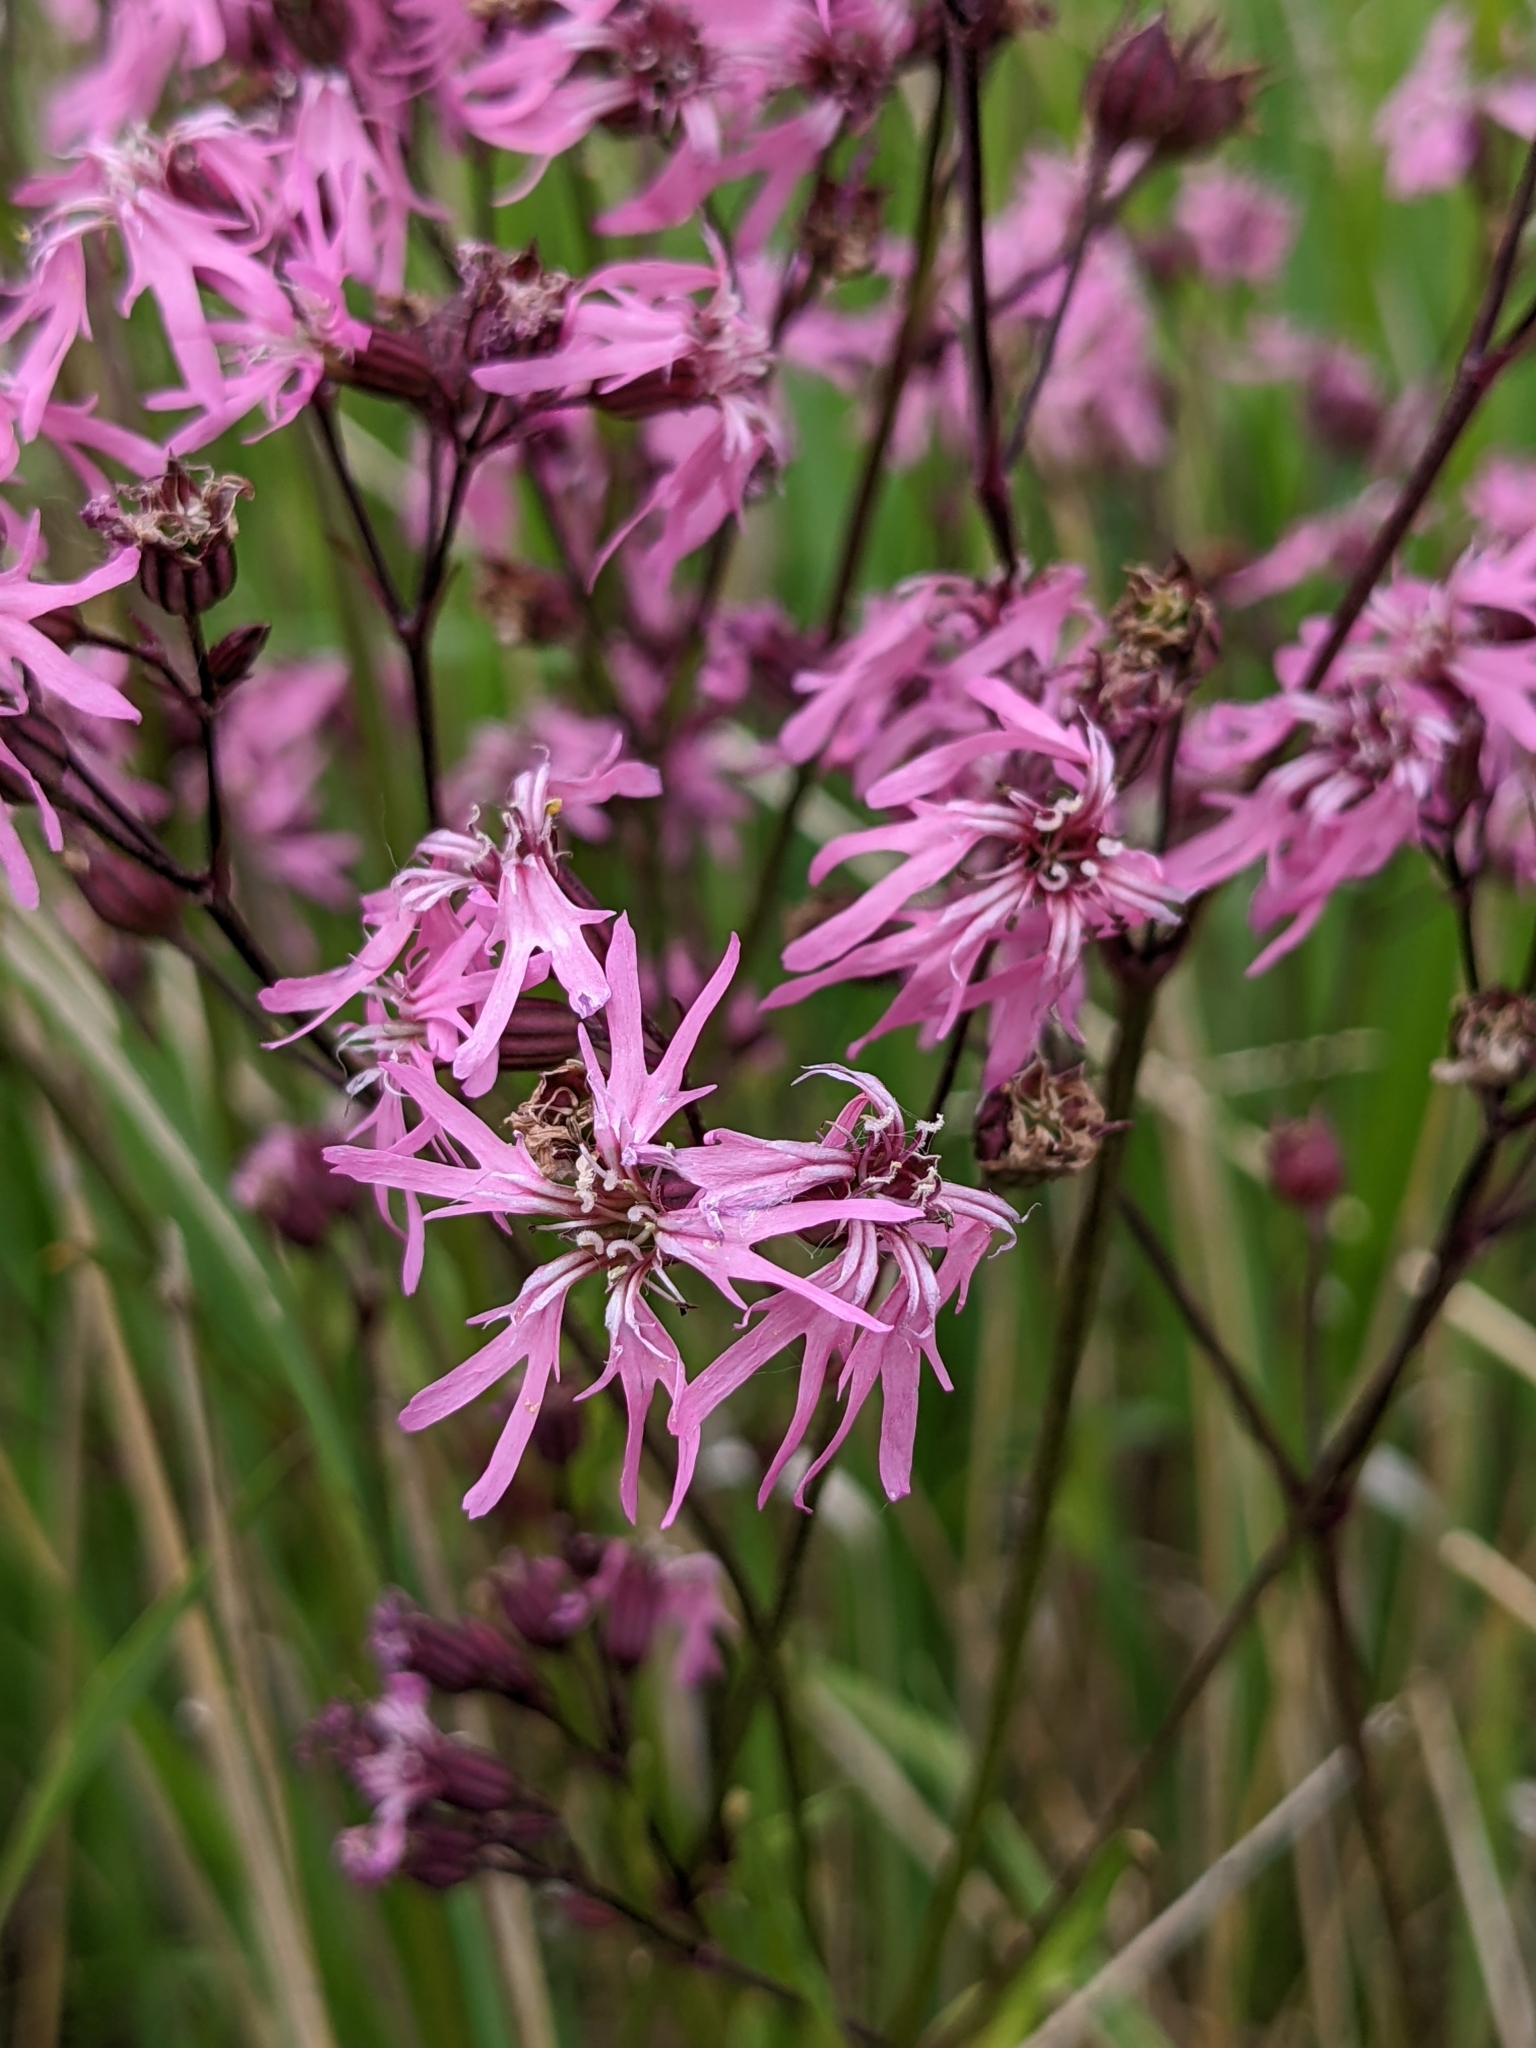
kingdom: Plantae
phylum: Tracheophyta
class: Magnoliopsida
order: Caryophyllales
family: Caryophyllaceae
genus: Silene
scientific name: Silene flos-cuculi
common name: Ragged-robin
